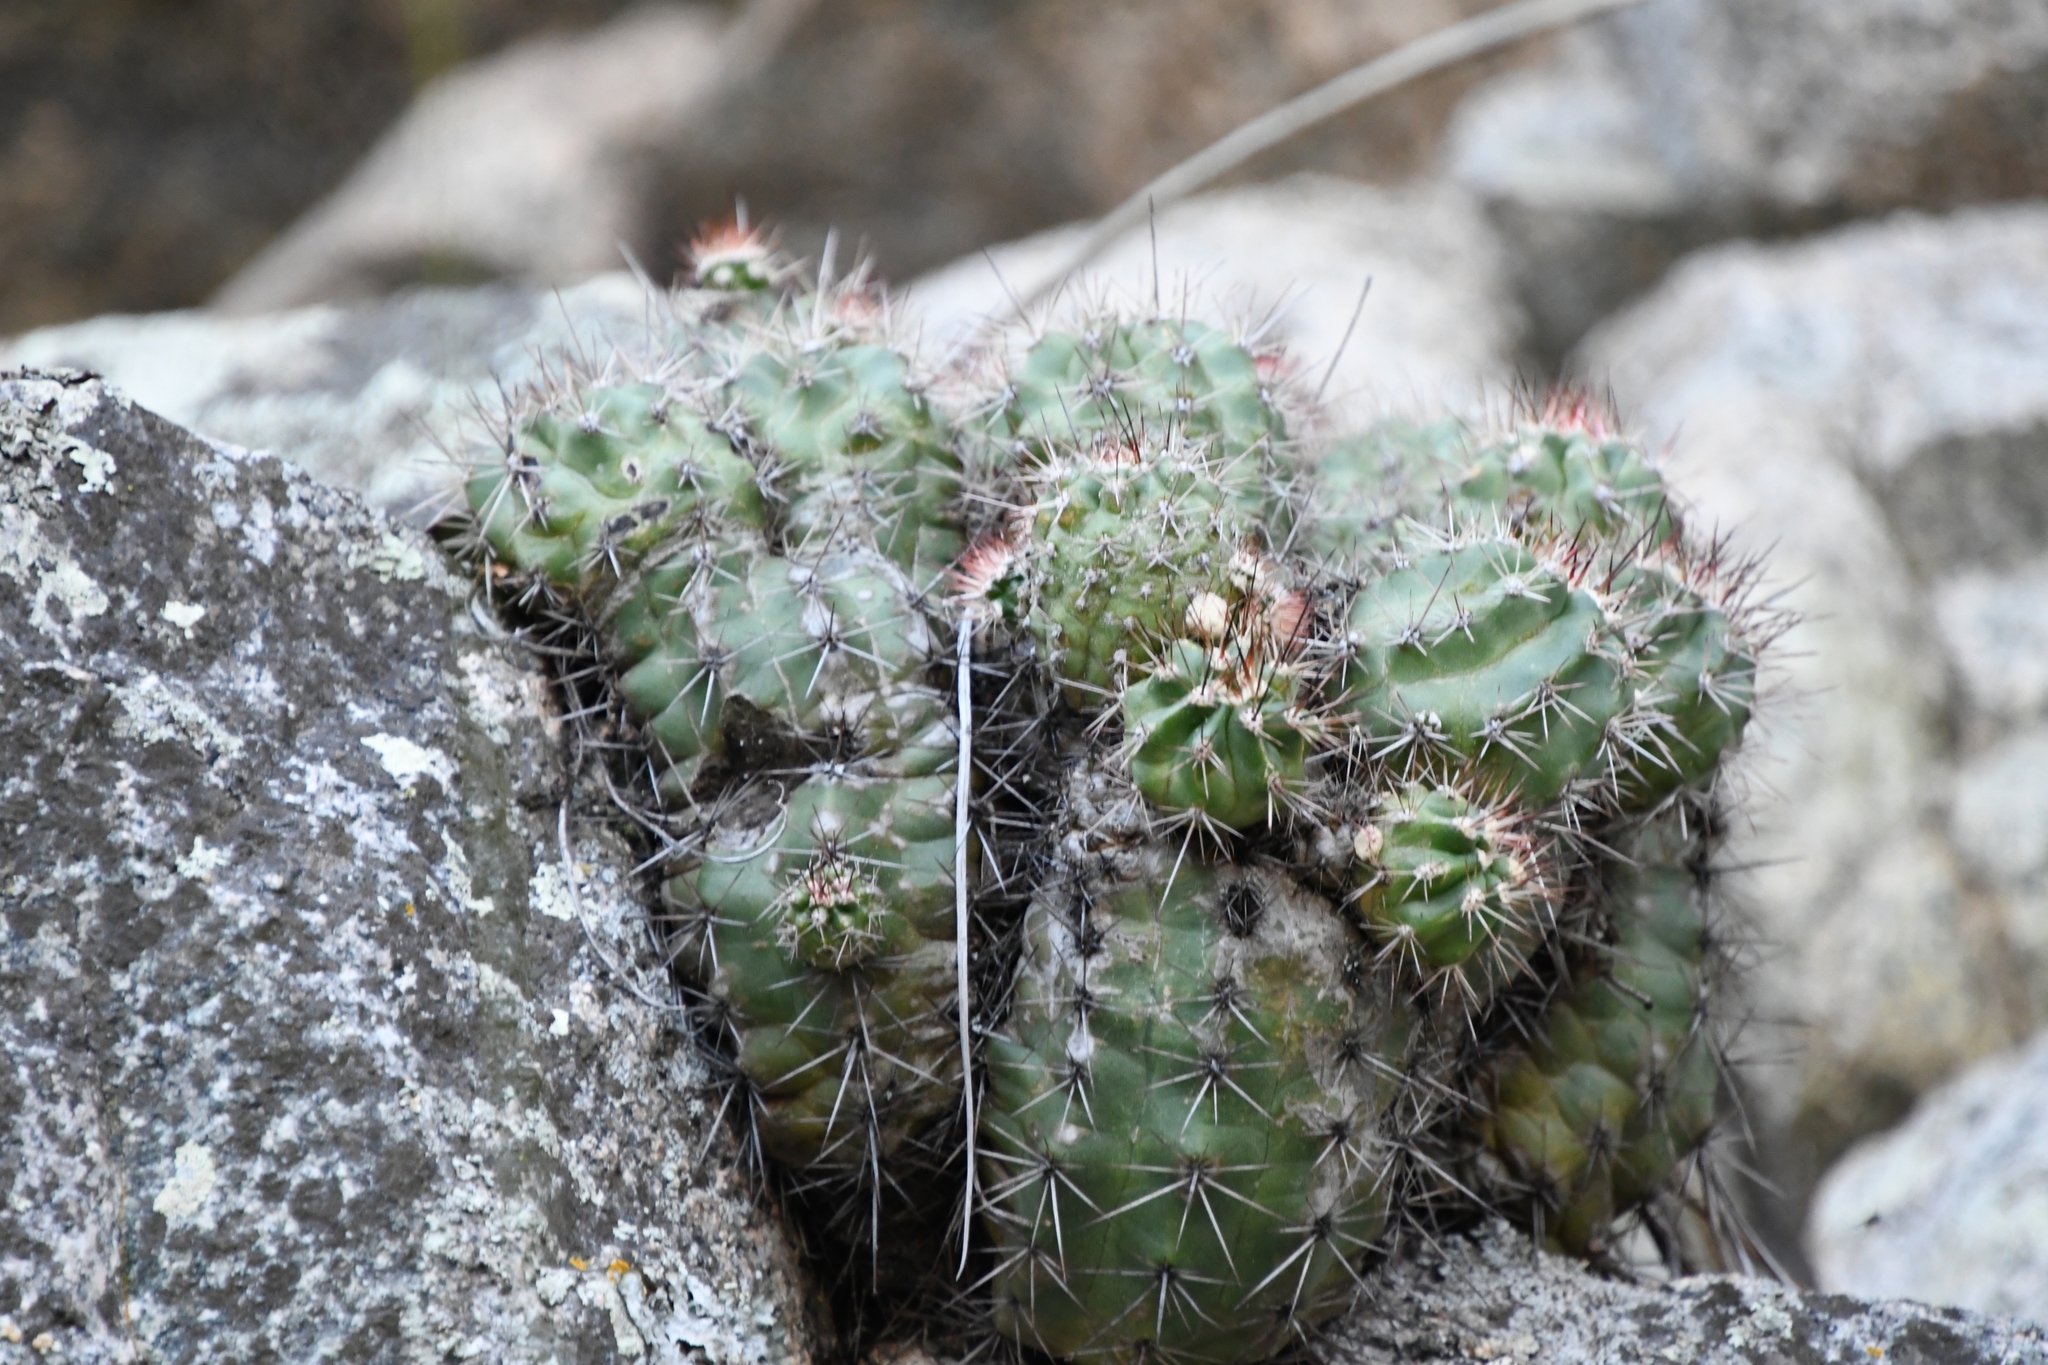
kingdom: Plantae
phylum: Tracheophyta
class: Magnoliopsida
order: Caryophyllales
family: Cactaceae
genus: Echinocereus
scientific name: Echinocereus coccineus
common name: Scarlet hedgehog cactus
